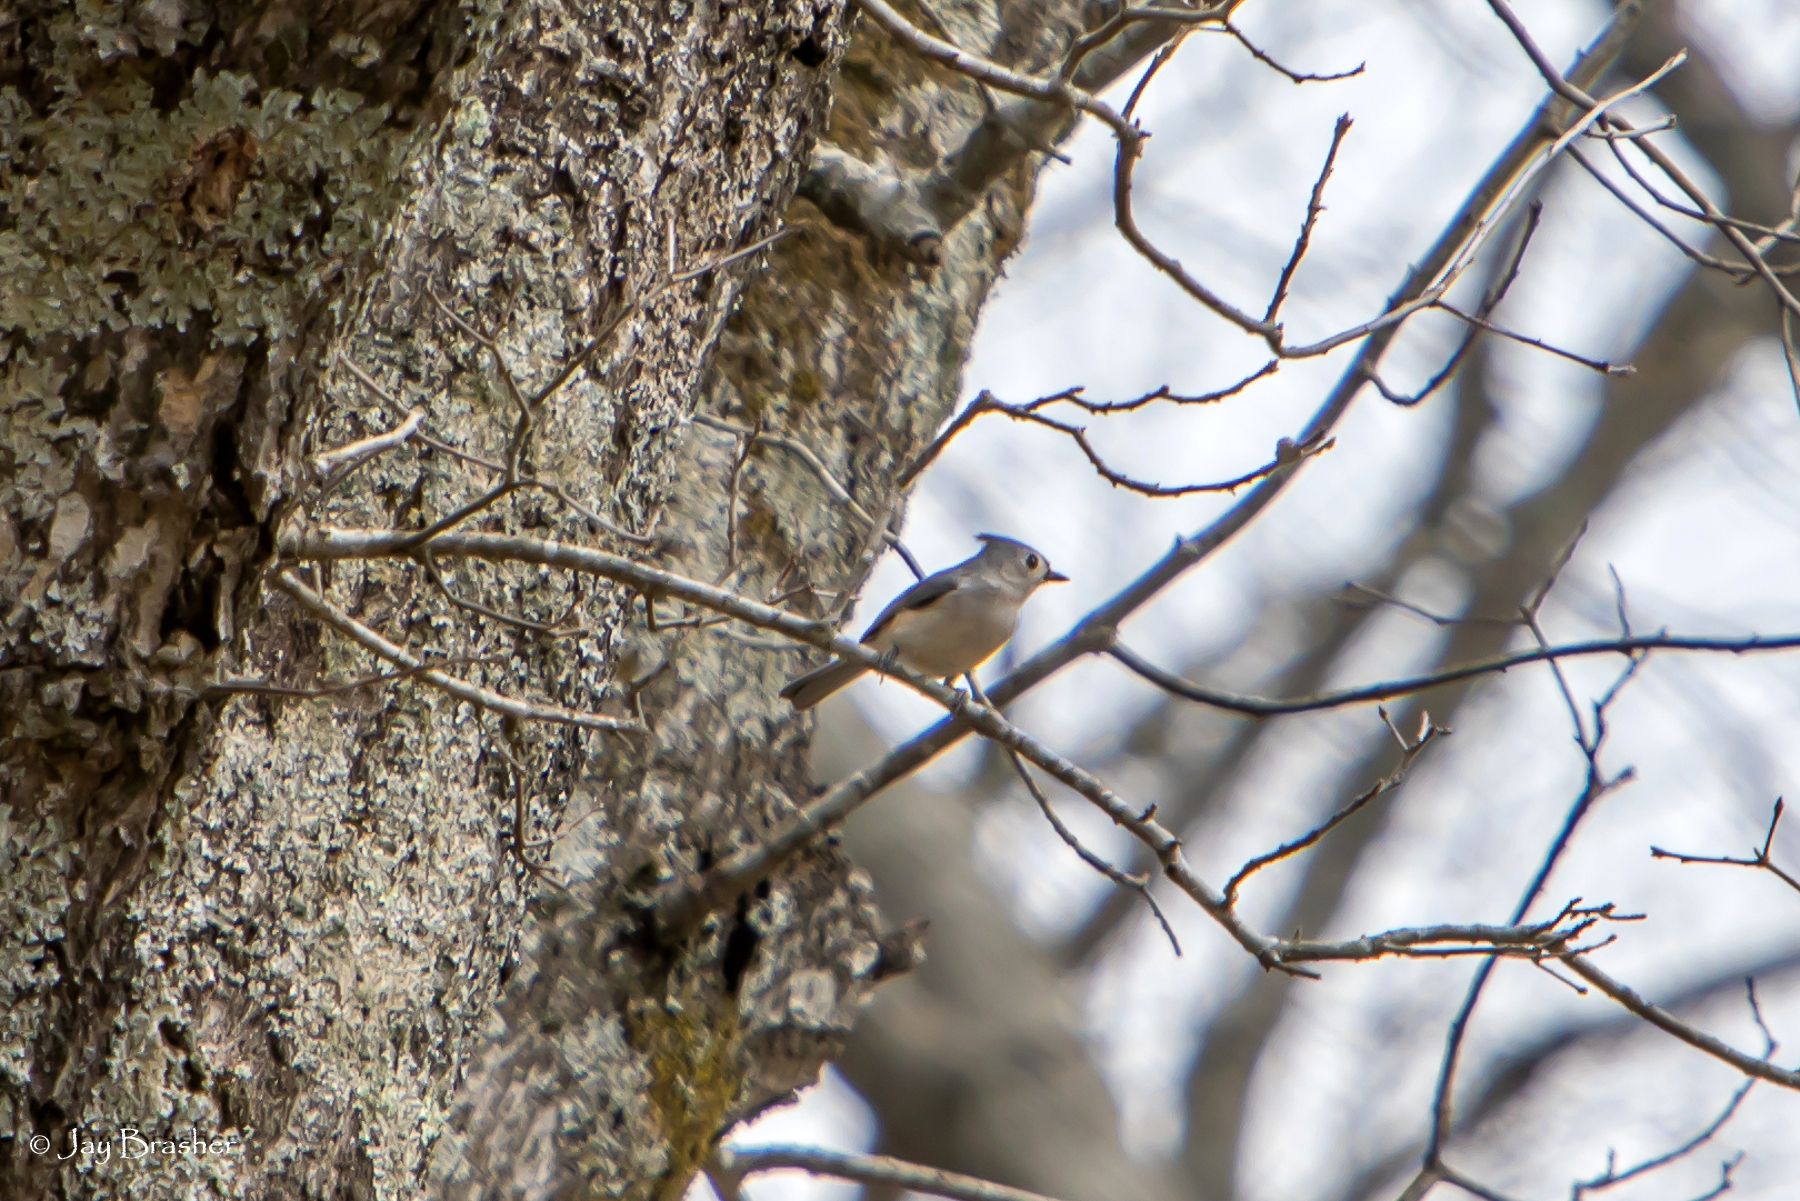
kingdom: Animalia
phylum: Chordata
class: Aves
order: Passeriformes
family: Paridae
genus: Baeolophus
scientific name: Baeolophus bicolor
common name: Tufted titmouse
